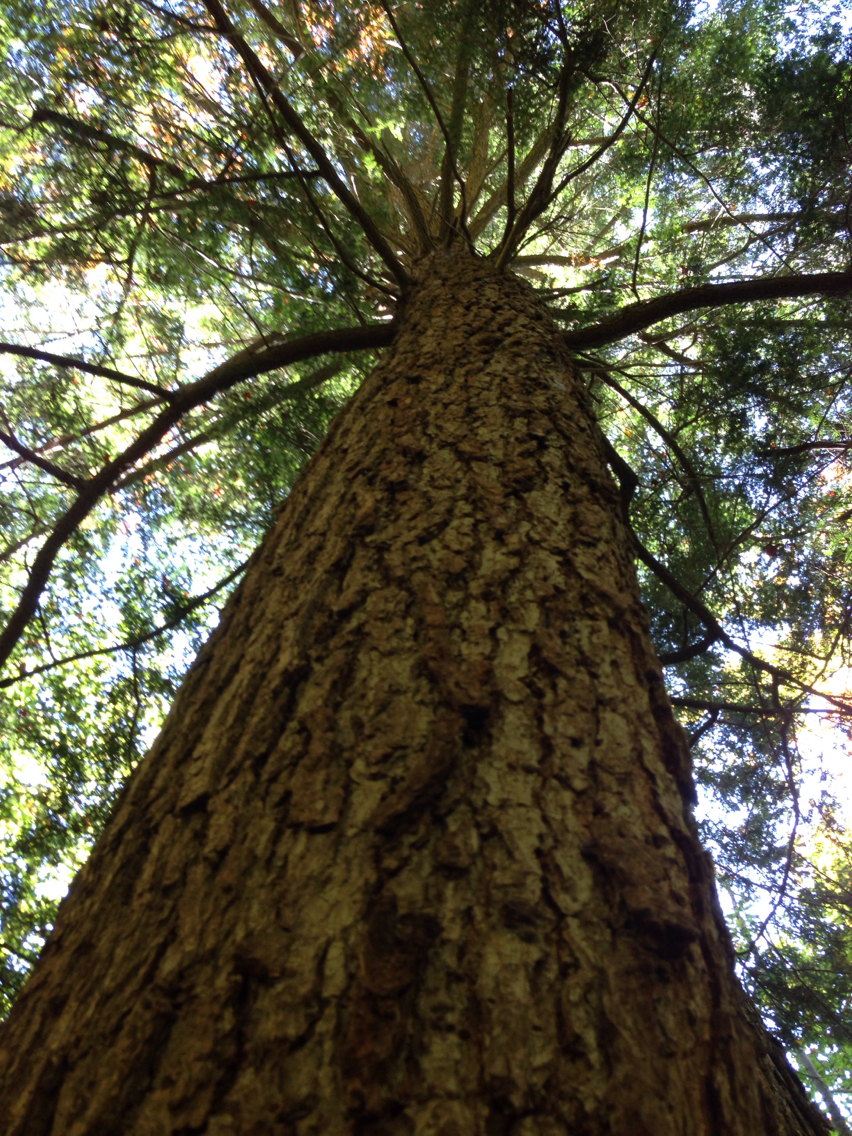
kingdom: Plantae
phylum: Tracheophyta
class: Pinopsida
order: Pinales
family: Pinaceae
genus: Tsuga
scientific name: Tsuga canadensis
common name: Eastern hemlock
